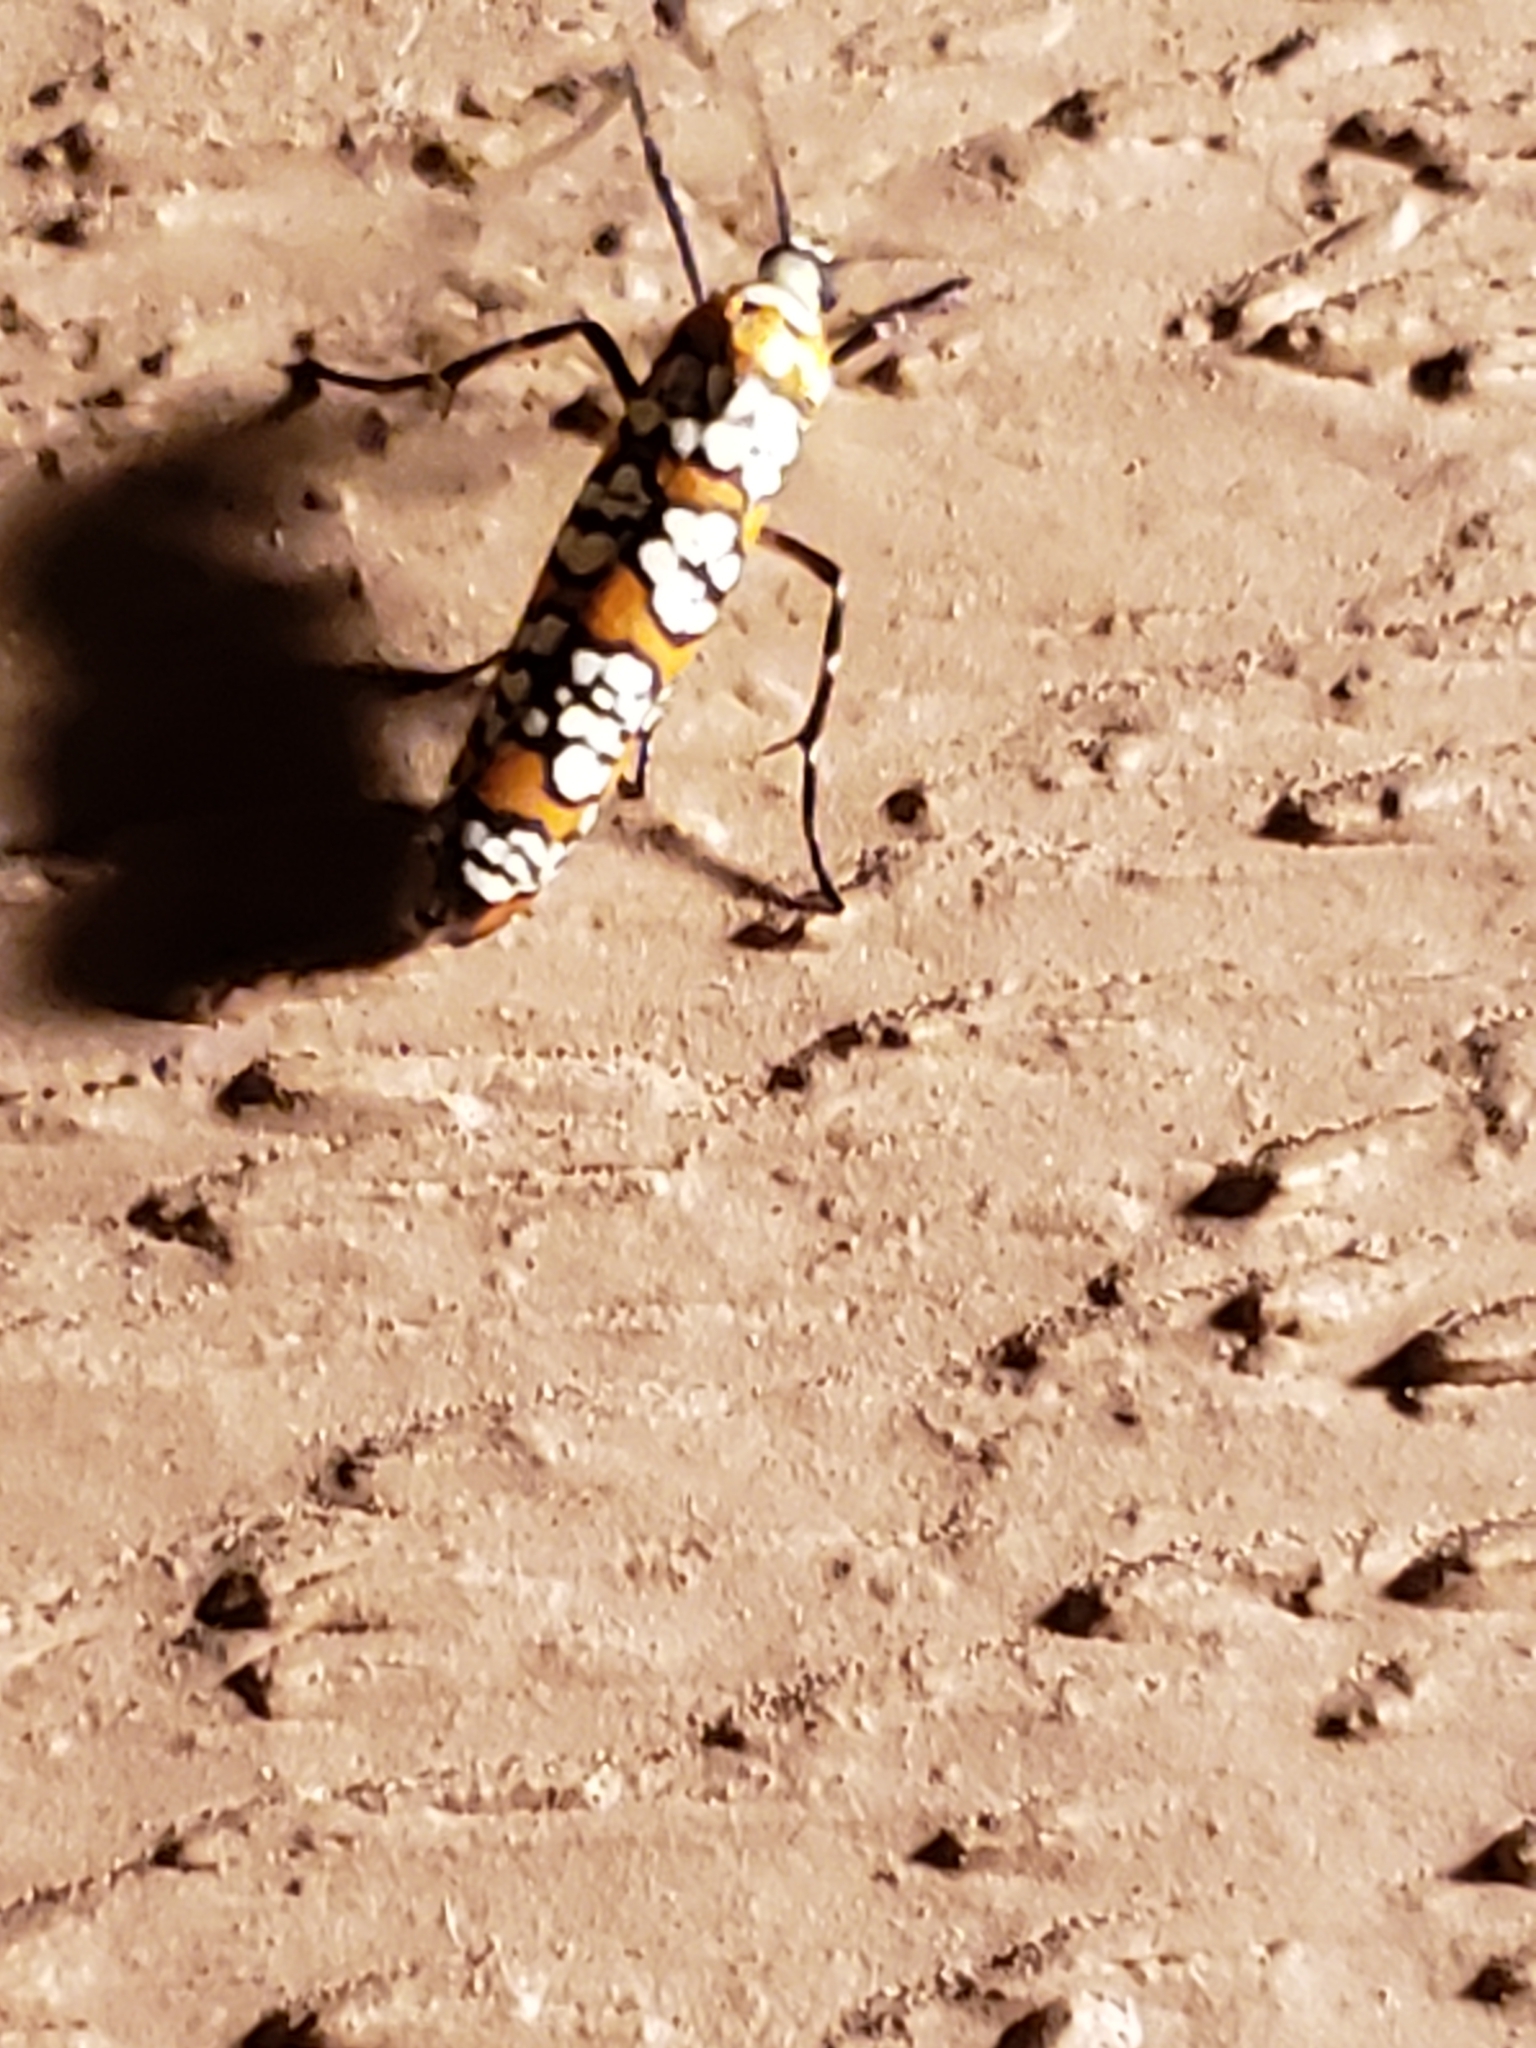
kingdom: Animalia
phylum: Arthropoda
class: Insecta
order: Lepidoptera
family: Attevidae
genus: Atteva
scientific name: Atteva punctella
